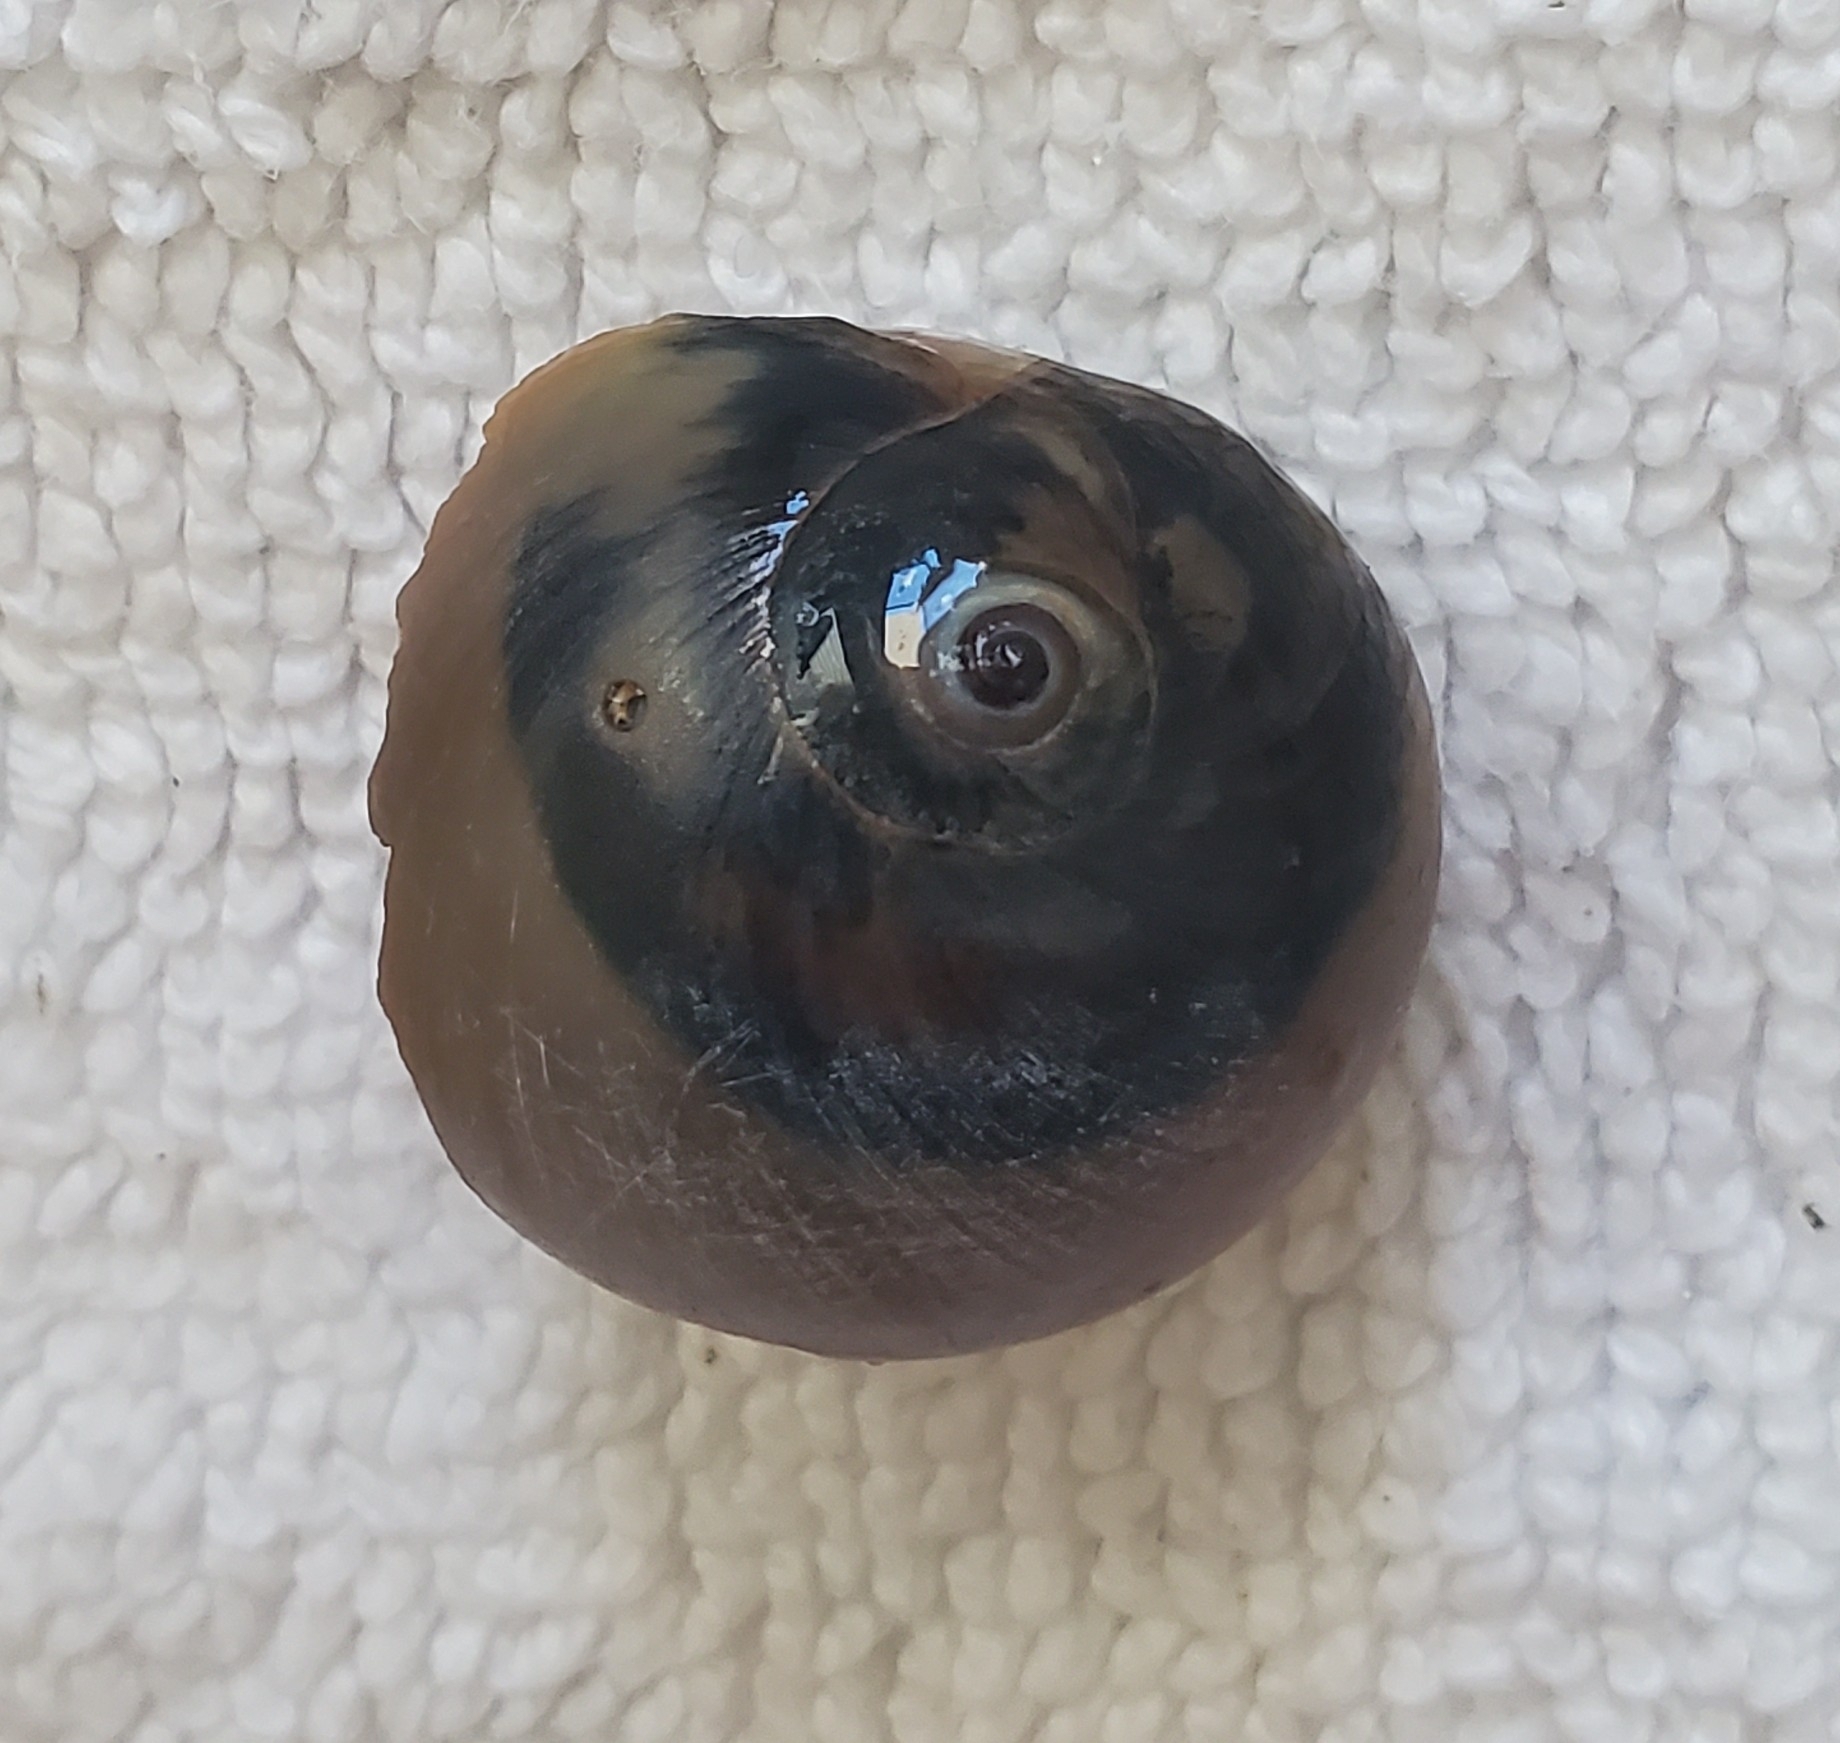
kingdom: Animalia
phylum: Mollusca
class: Gastropoda
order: Littorinimorpha
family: Naticidae
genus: Neverita
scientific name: Neverita duplicata
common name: Lobed moonsnail
